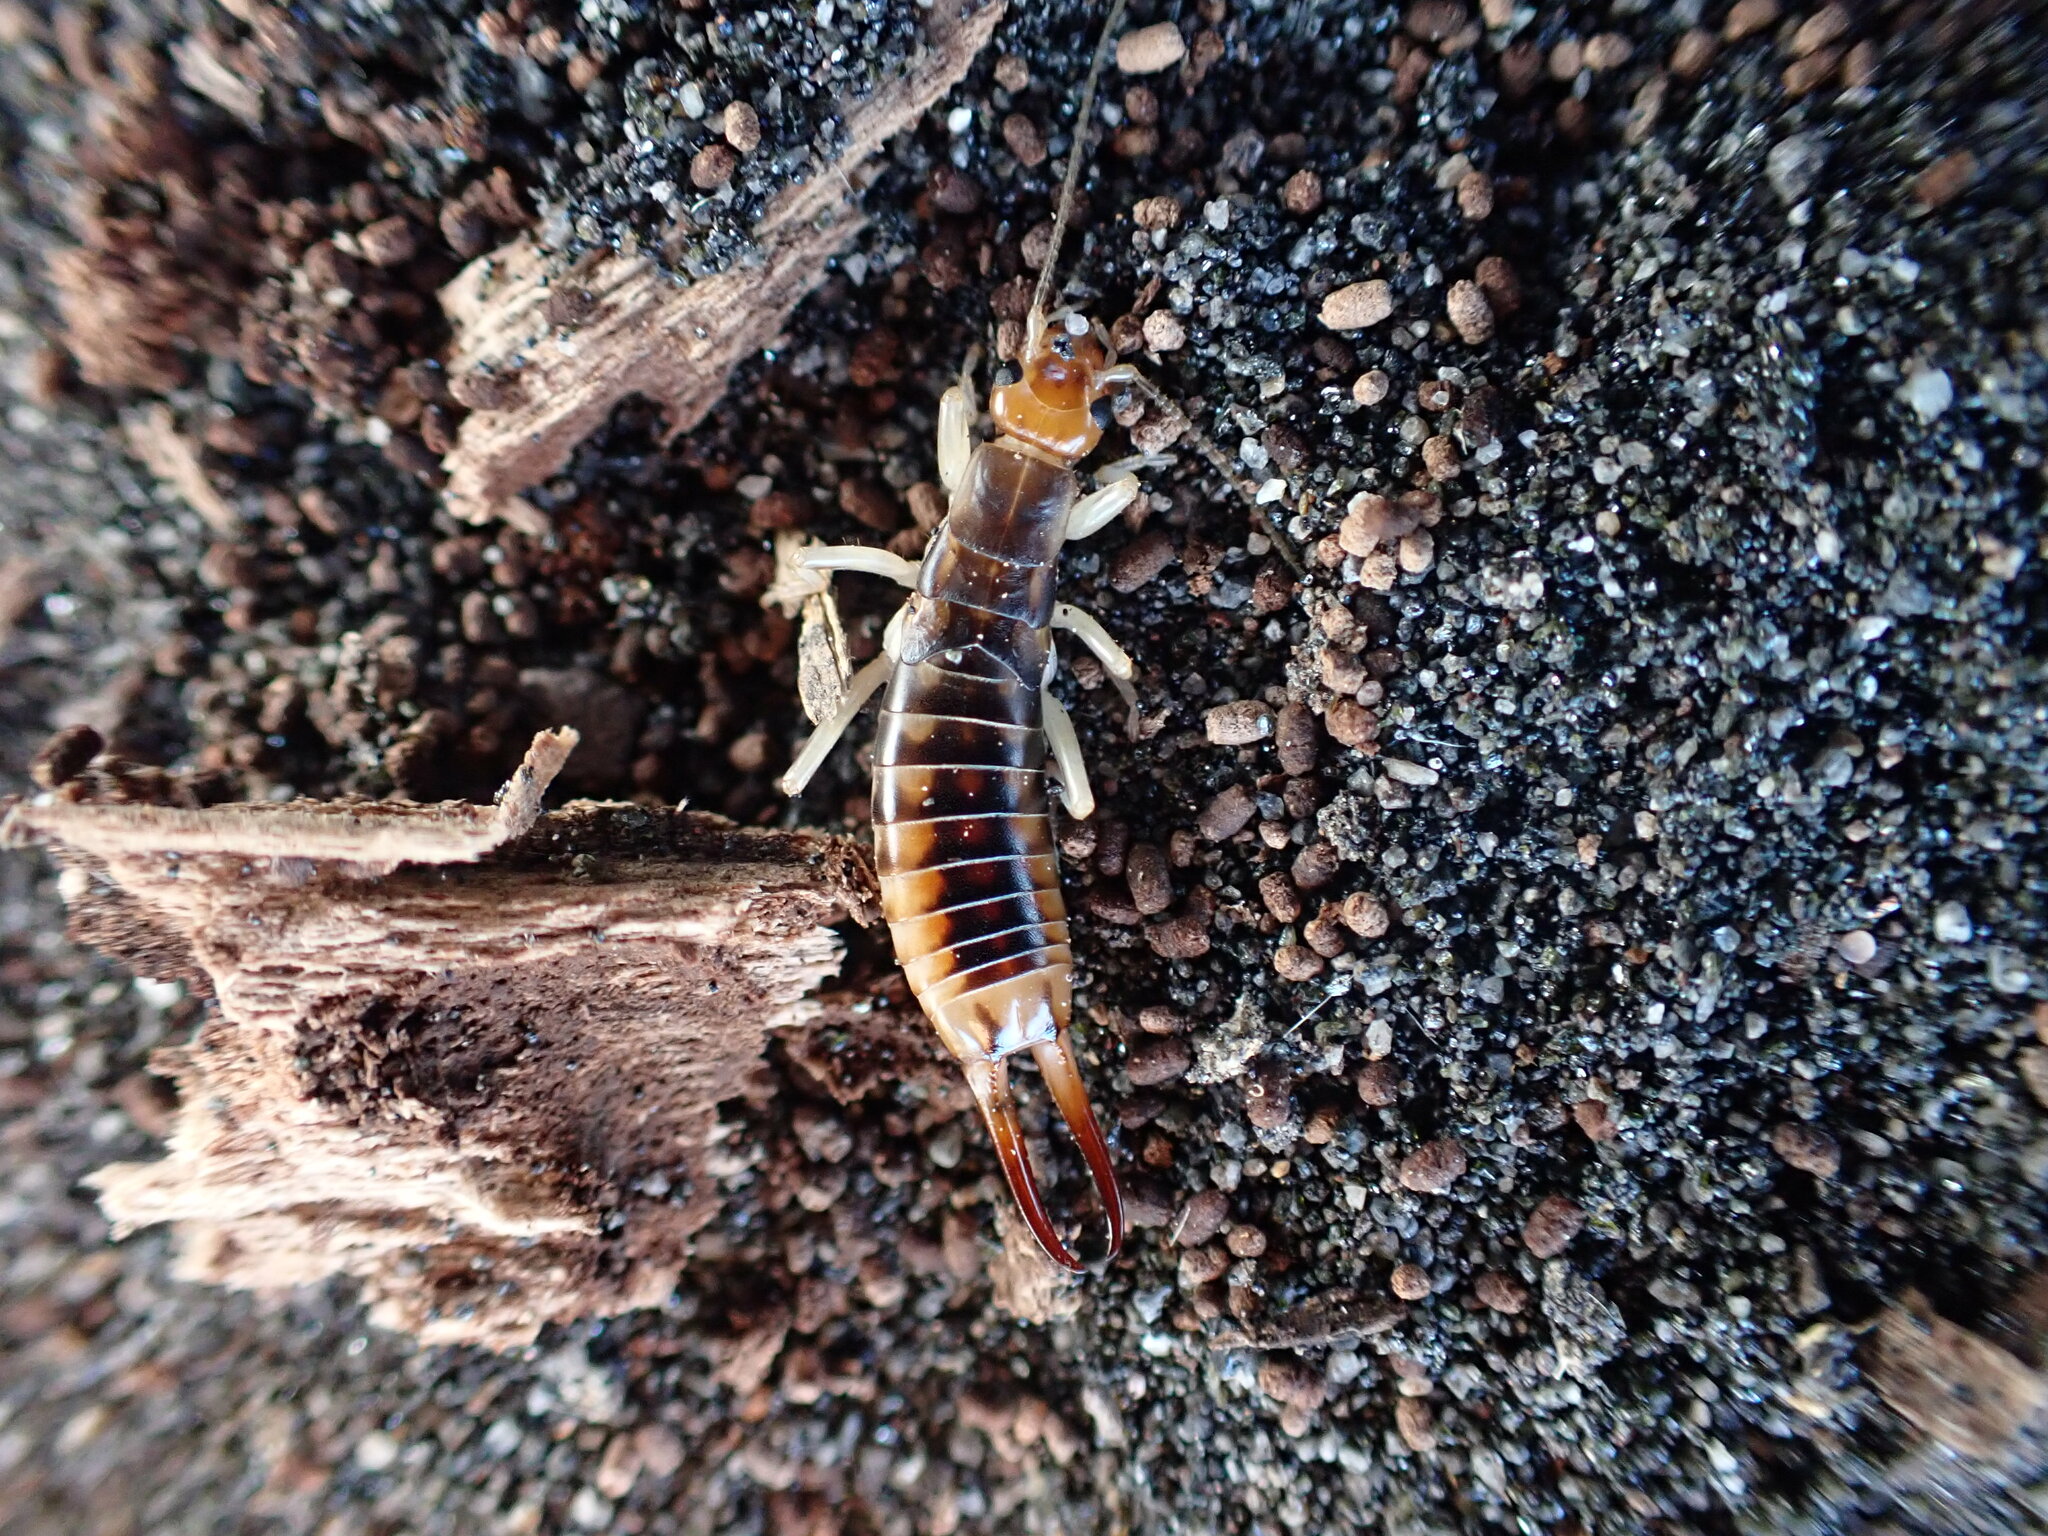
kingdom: Animalia
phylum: Arthropoda
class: Insecta
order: Dermaptera
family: Labiduridae
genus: Labidura
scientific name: Labidura riparia
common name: Striped earwig
